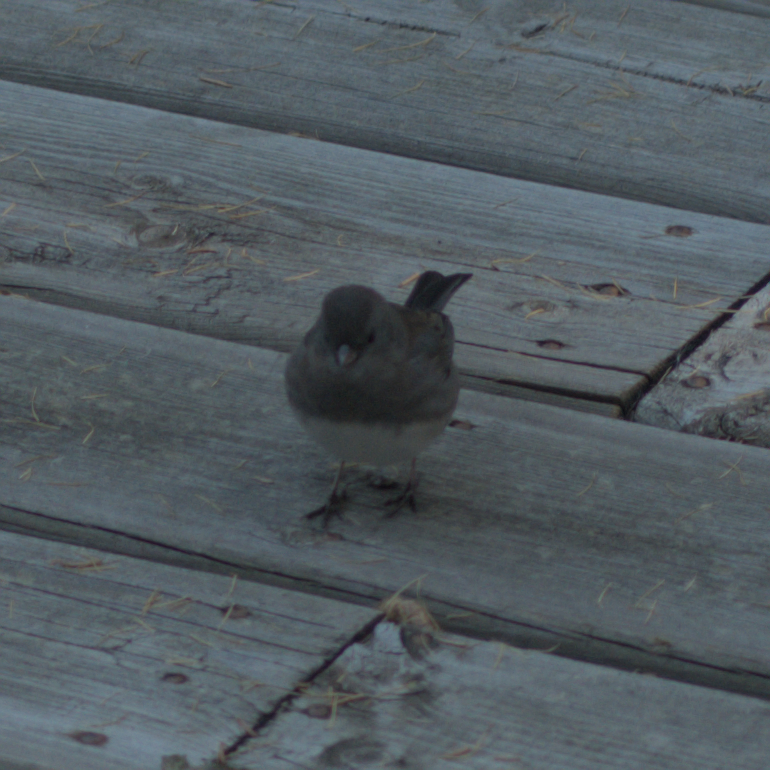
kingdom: Animalia
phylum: Chordata
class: Aves
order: Passeriformes
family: Passerellidae
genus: Junco
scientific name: Junco hyemalis
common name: Dark-eyed junco
